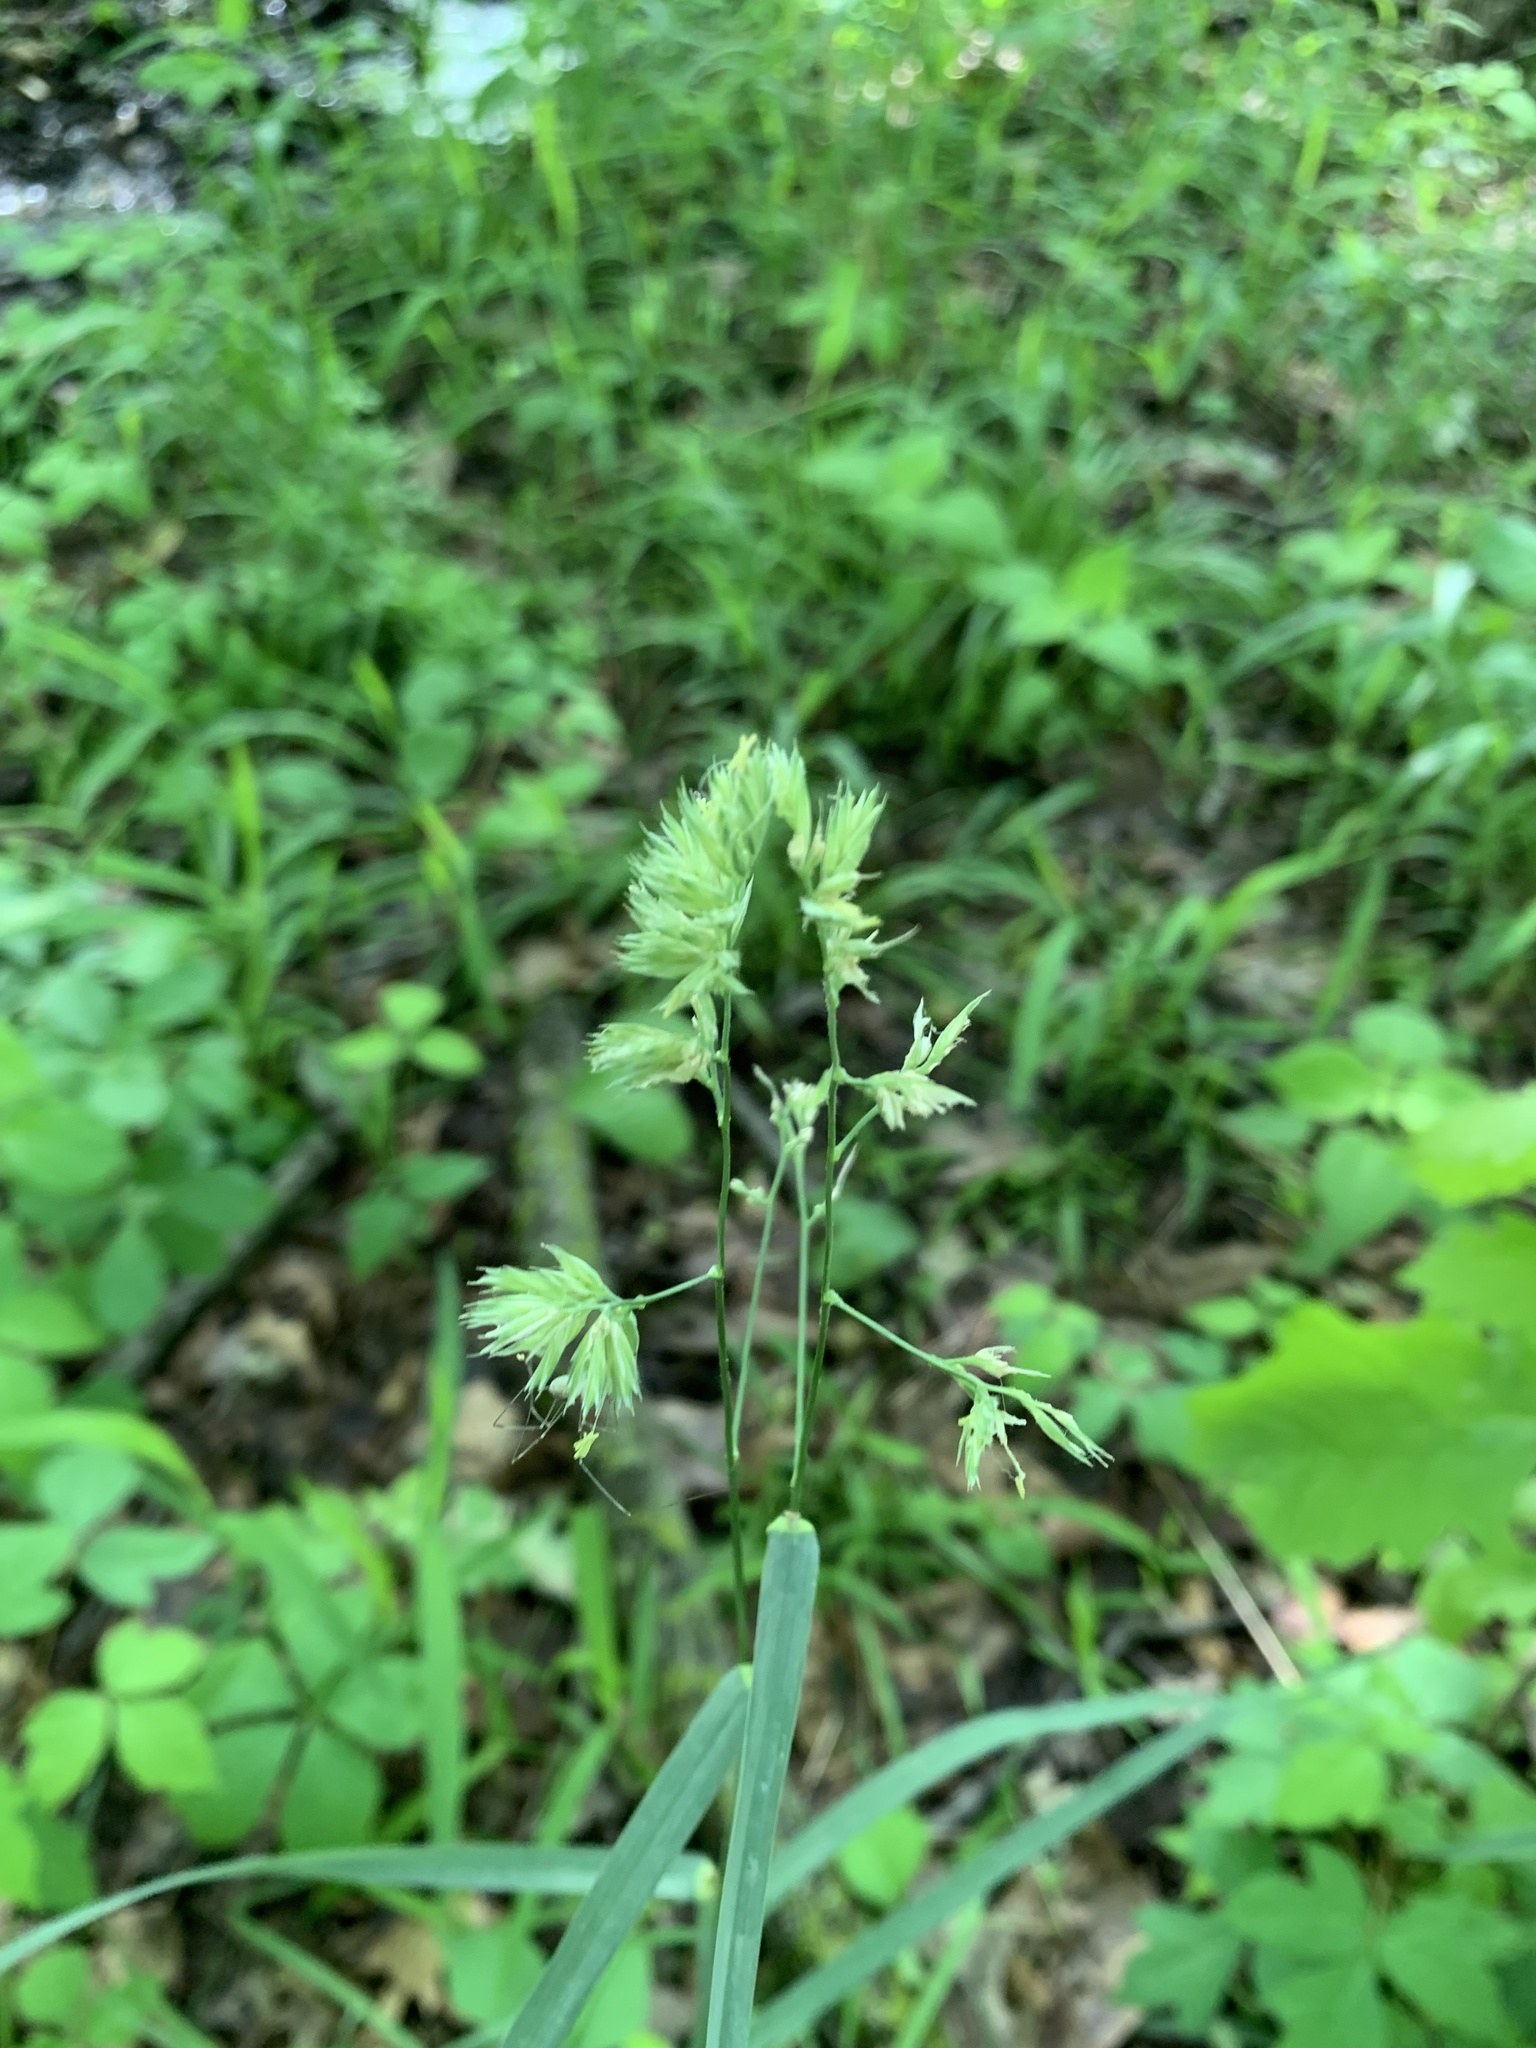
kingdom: Plantae
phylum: Tracheophyta
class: Liliopsida
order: Poales
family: Poaceae
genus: Dactylis
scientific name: Dactylis glomerata
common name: Orchardgrass
